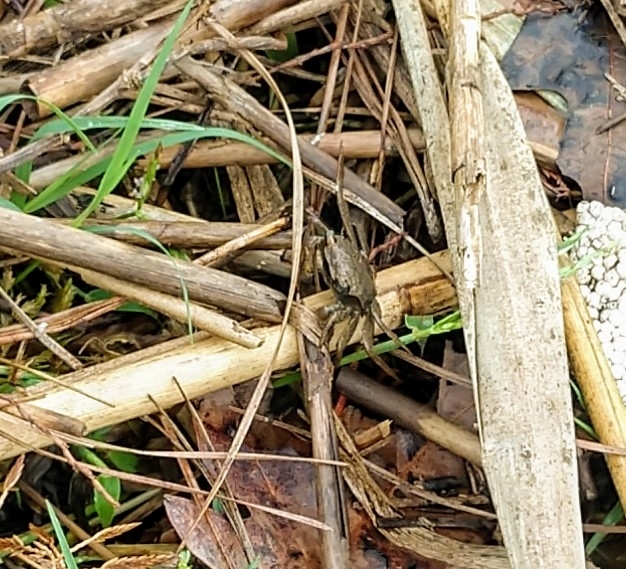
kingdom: Animalia
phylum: Arthropoda
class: Malacostraca
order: Decapoda
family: Sesarmidae
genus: Armases
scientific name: Armases cinereum
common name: Squareback marsh crab
